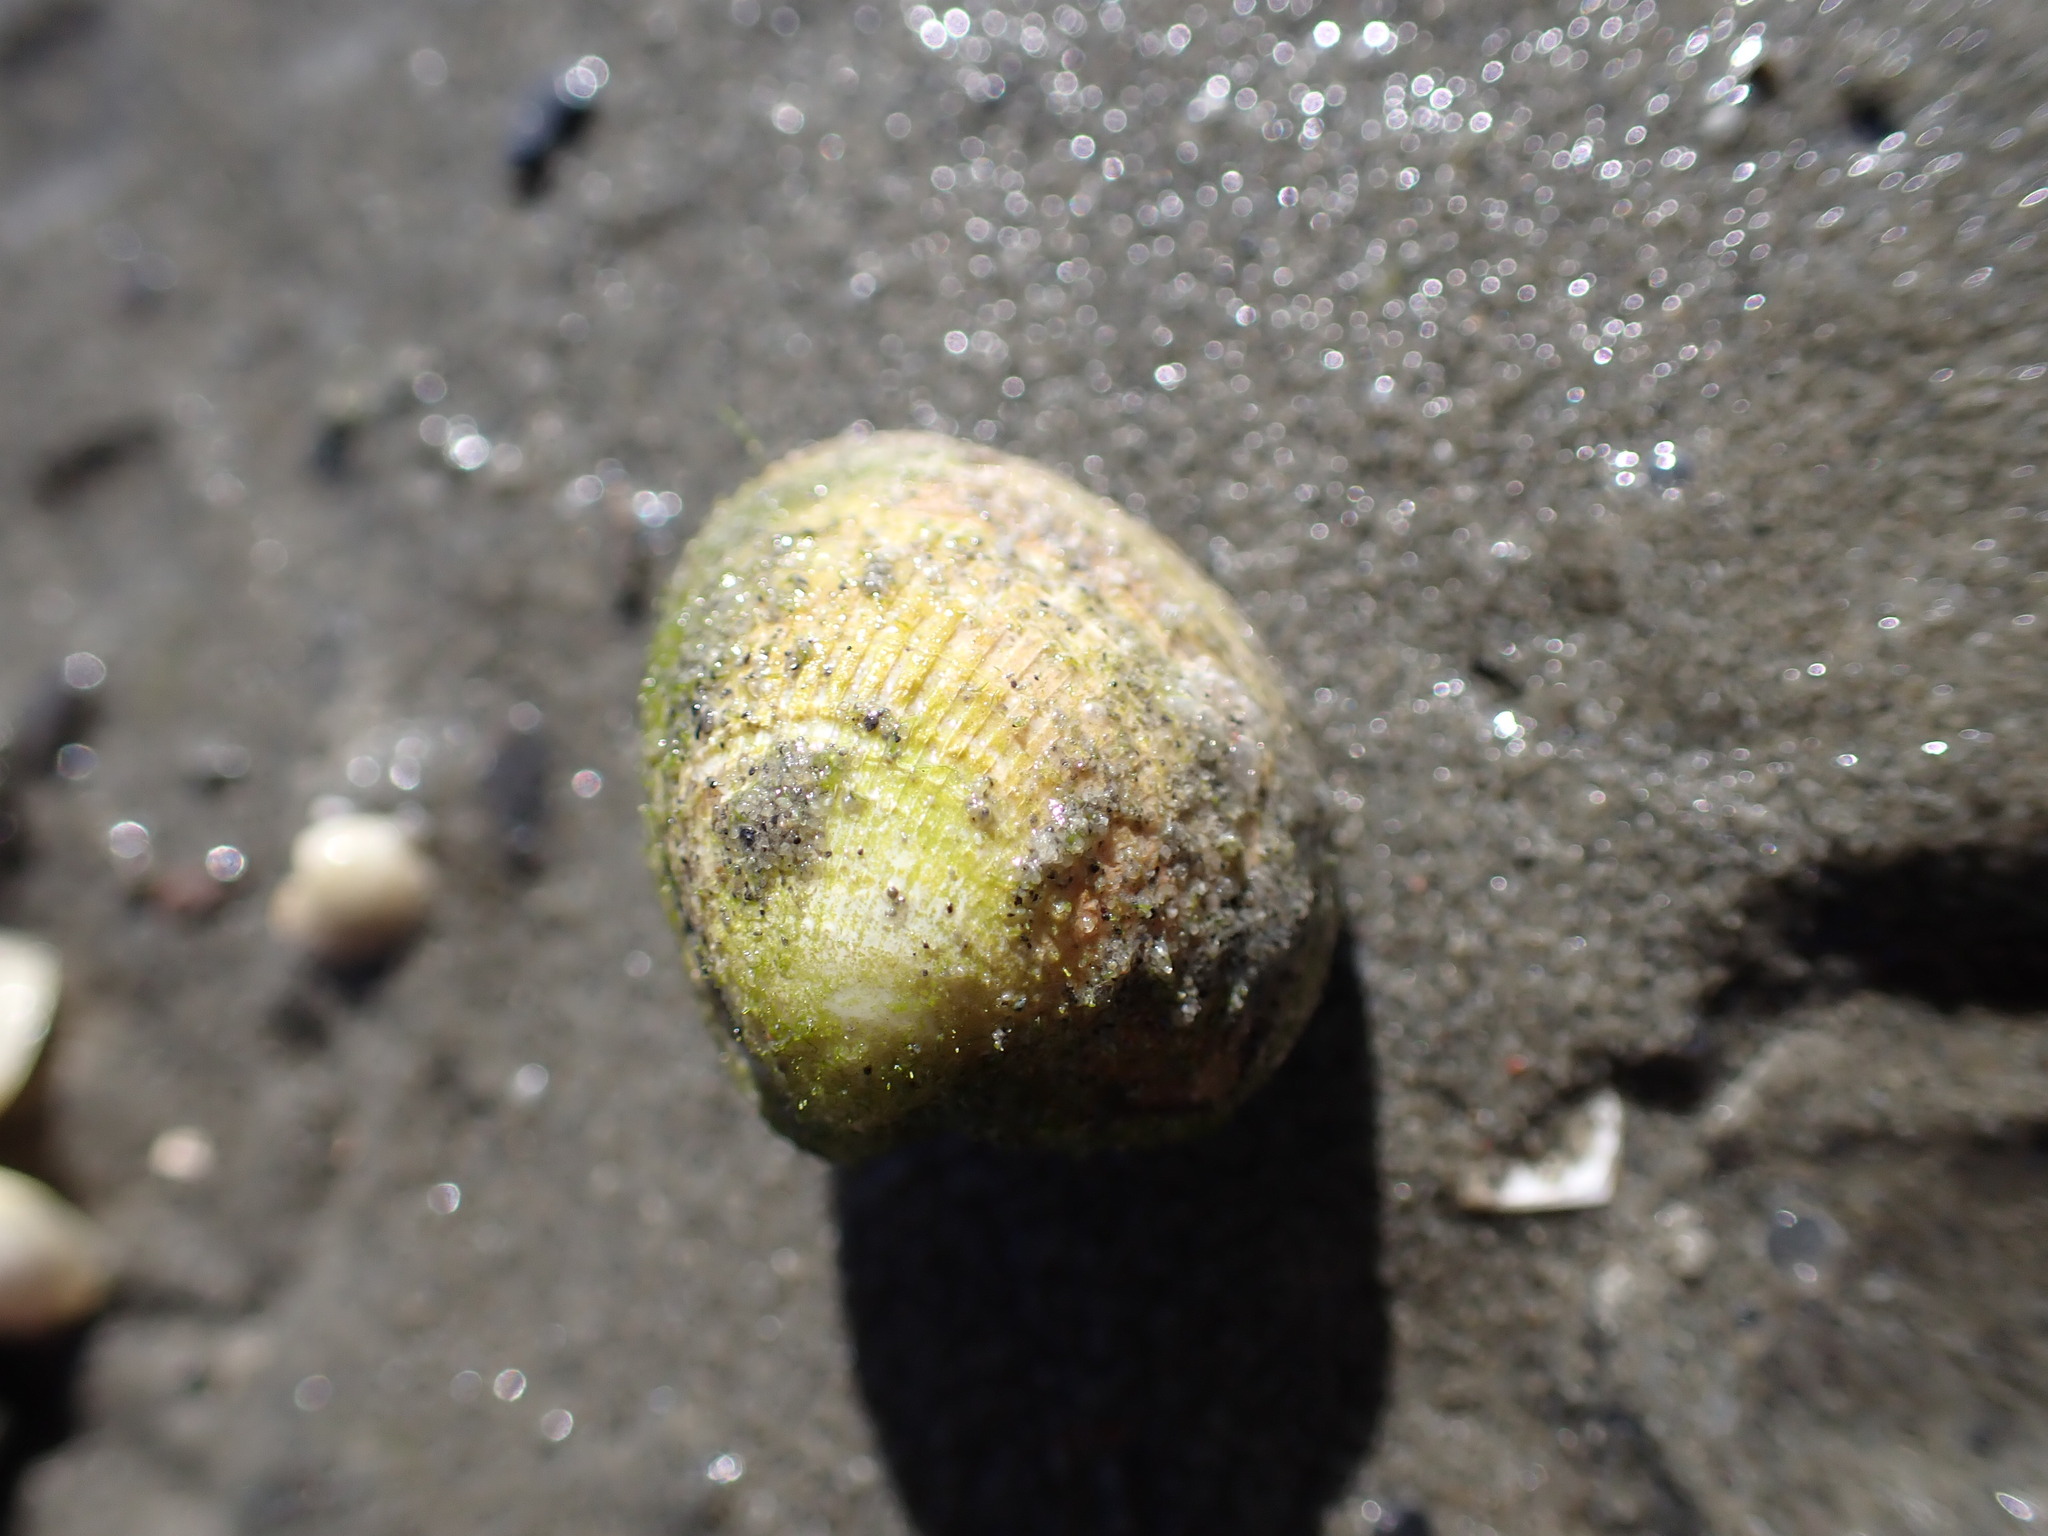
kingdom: Animalia
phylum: Mollusca
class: Bivalvia
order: Venerida
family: Veneridae
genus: Austrovenus
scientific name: Austrovenus stutchburyi
